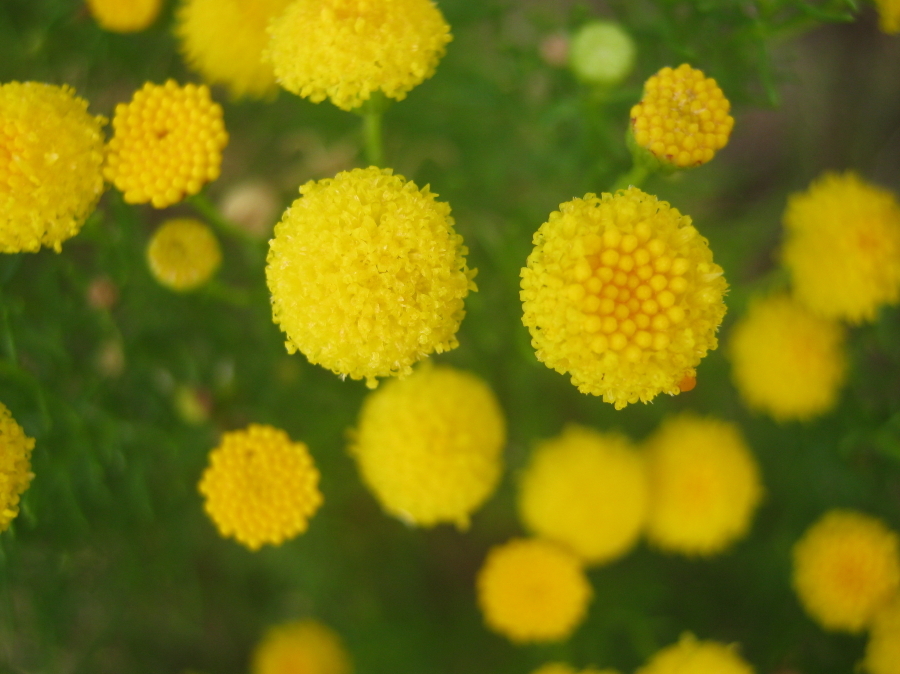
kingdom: Plantae
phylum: Tracheophyta
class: Magnoliopsida
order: Asterales
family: Asteraceae
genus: Chrysocoma
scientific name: Chrysocoma ciliata
